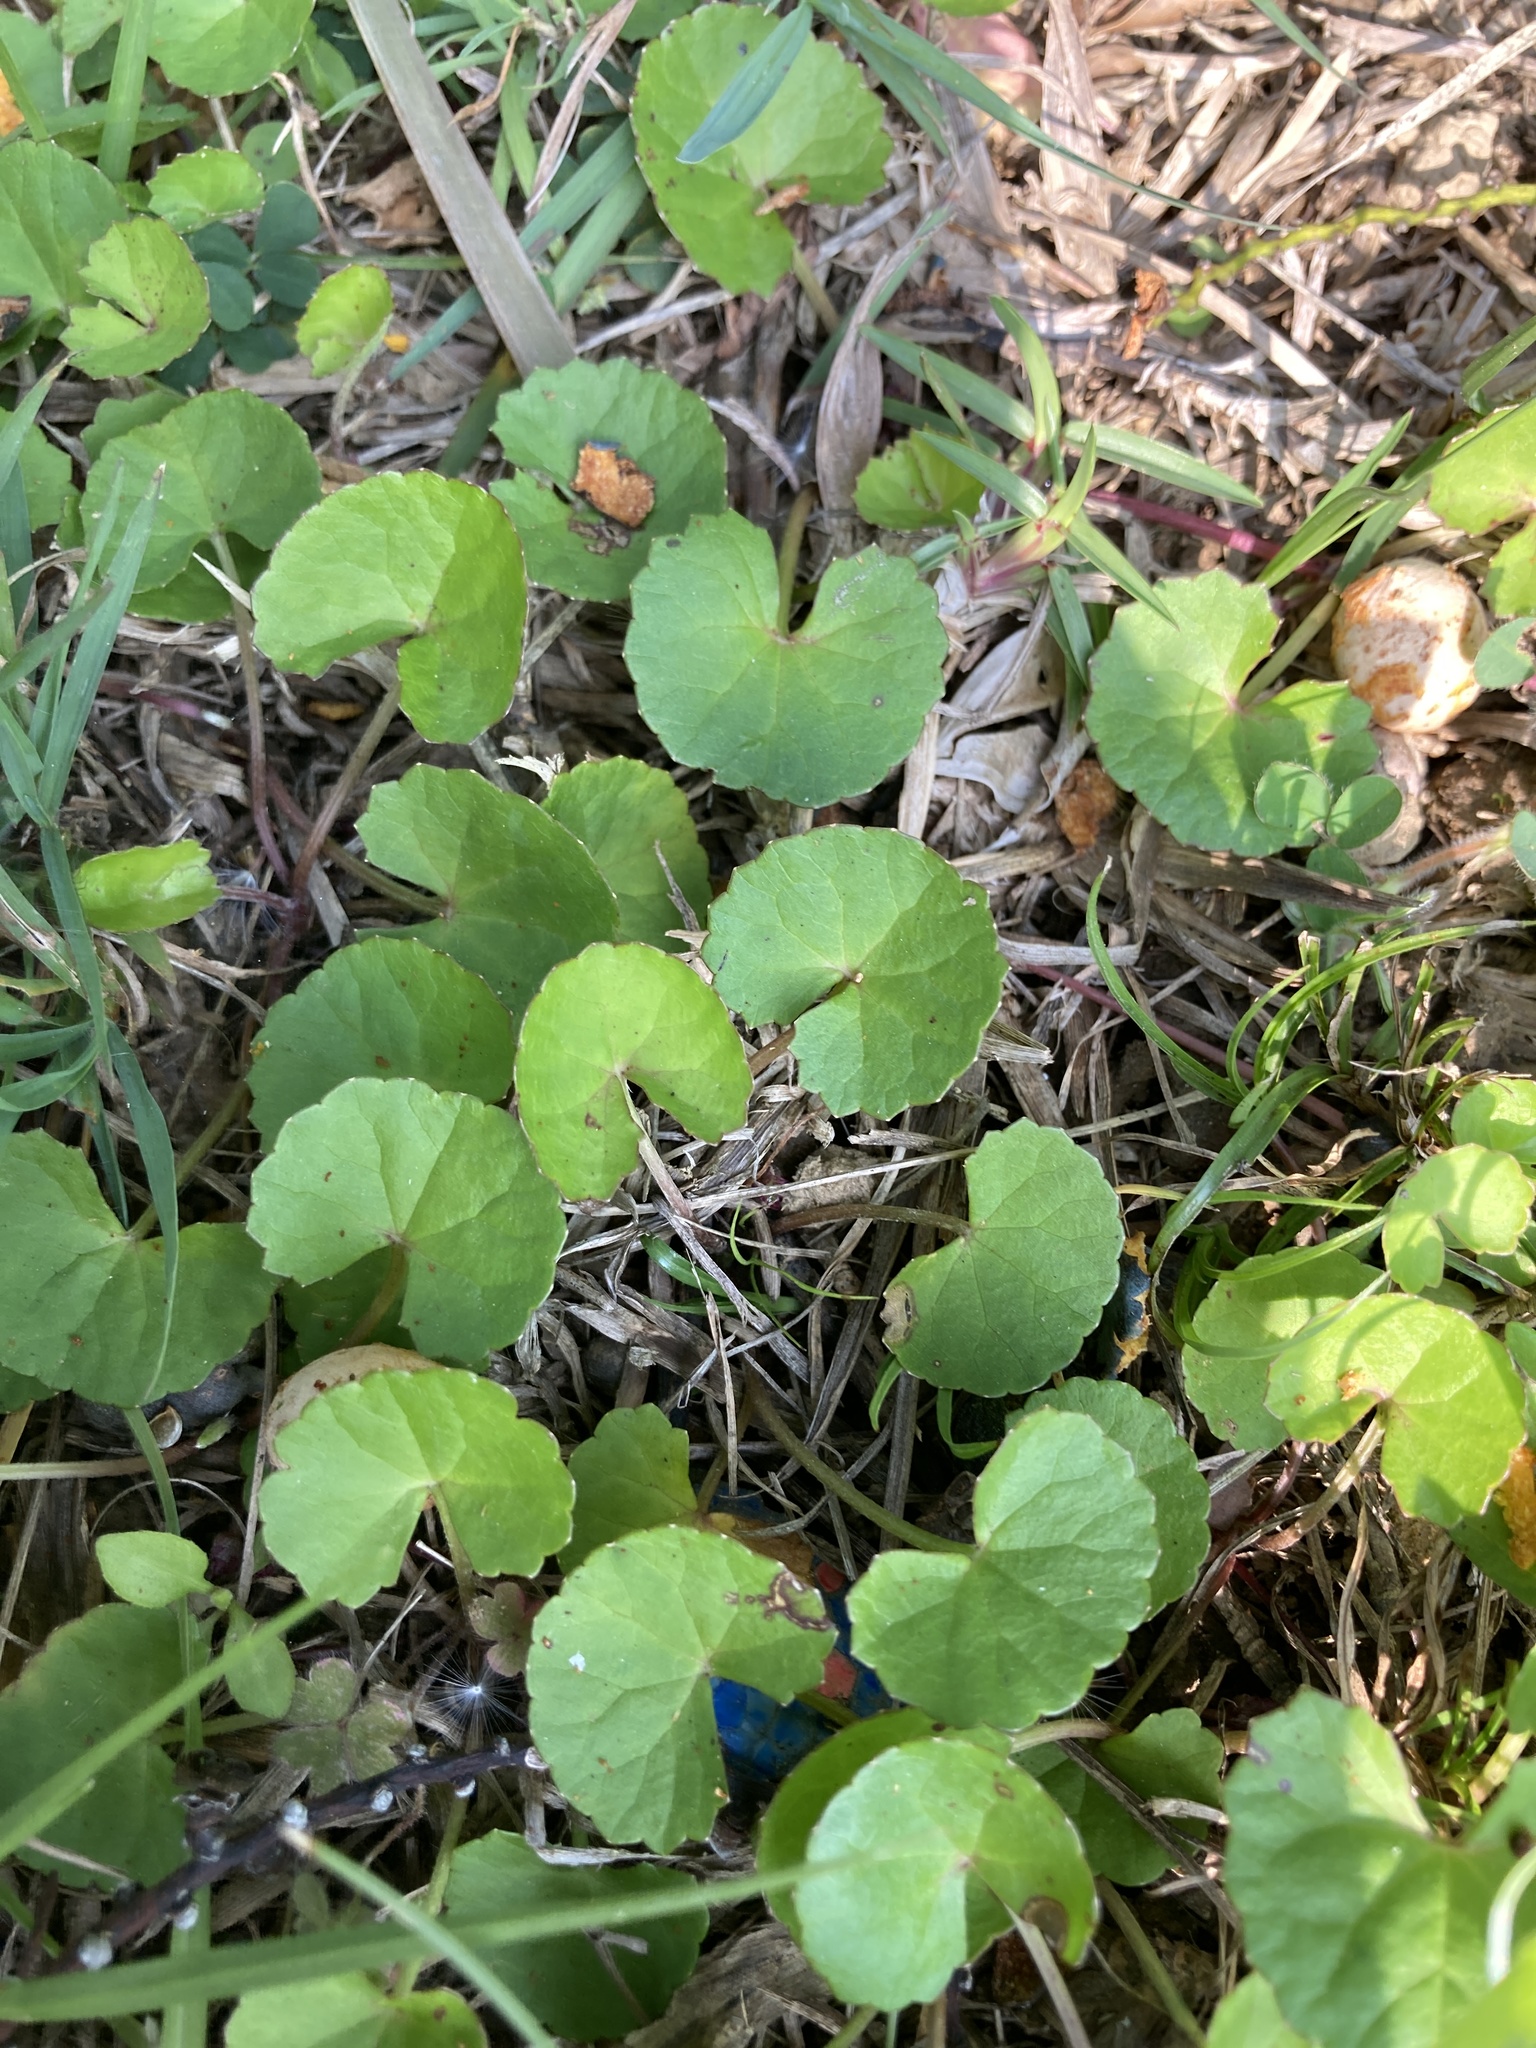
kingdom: Plantae
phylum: Tracheophyta
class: Magnoliopsida
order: Apiales
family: Apiaceae
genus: Centella
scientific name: Centella asiatica
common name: Spadeleaf
